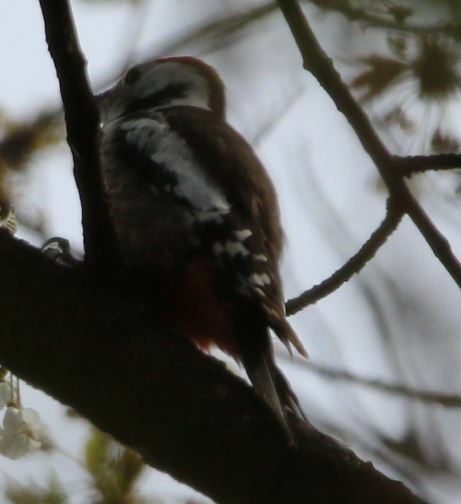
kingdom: Animalia
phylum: Chordata
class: Aves
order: Piciformes
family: Picidae
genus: Dendrocoptes
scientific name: Dendrocoptes medius
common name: Middle spotted woodpecker
